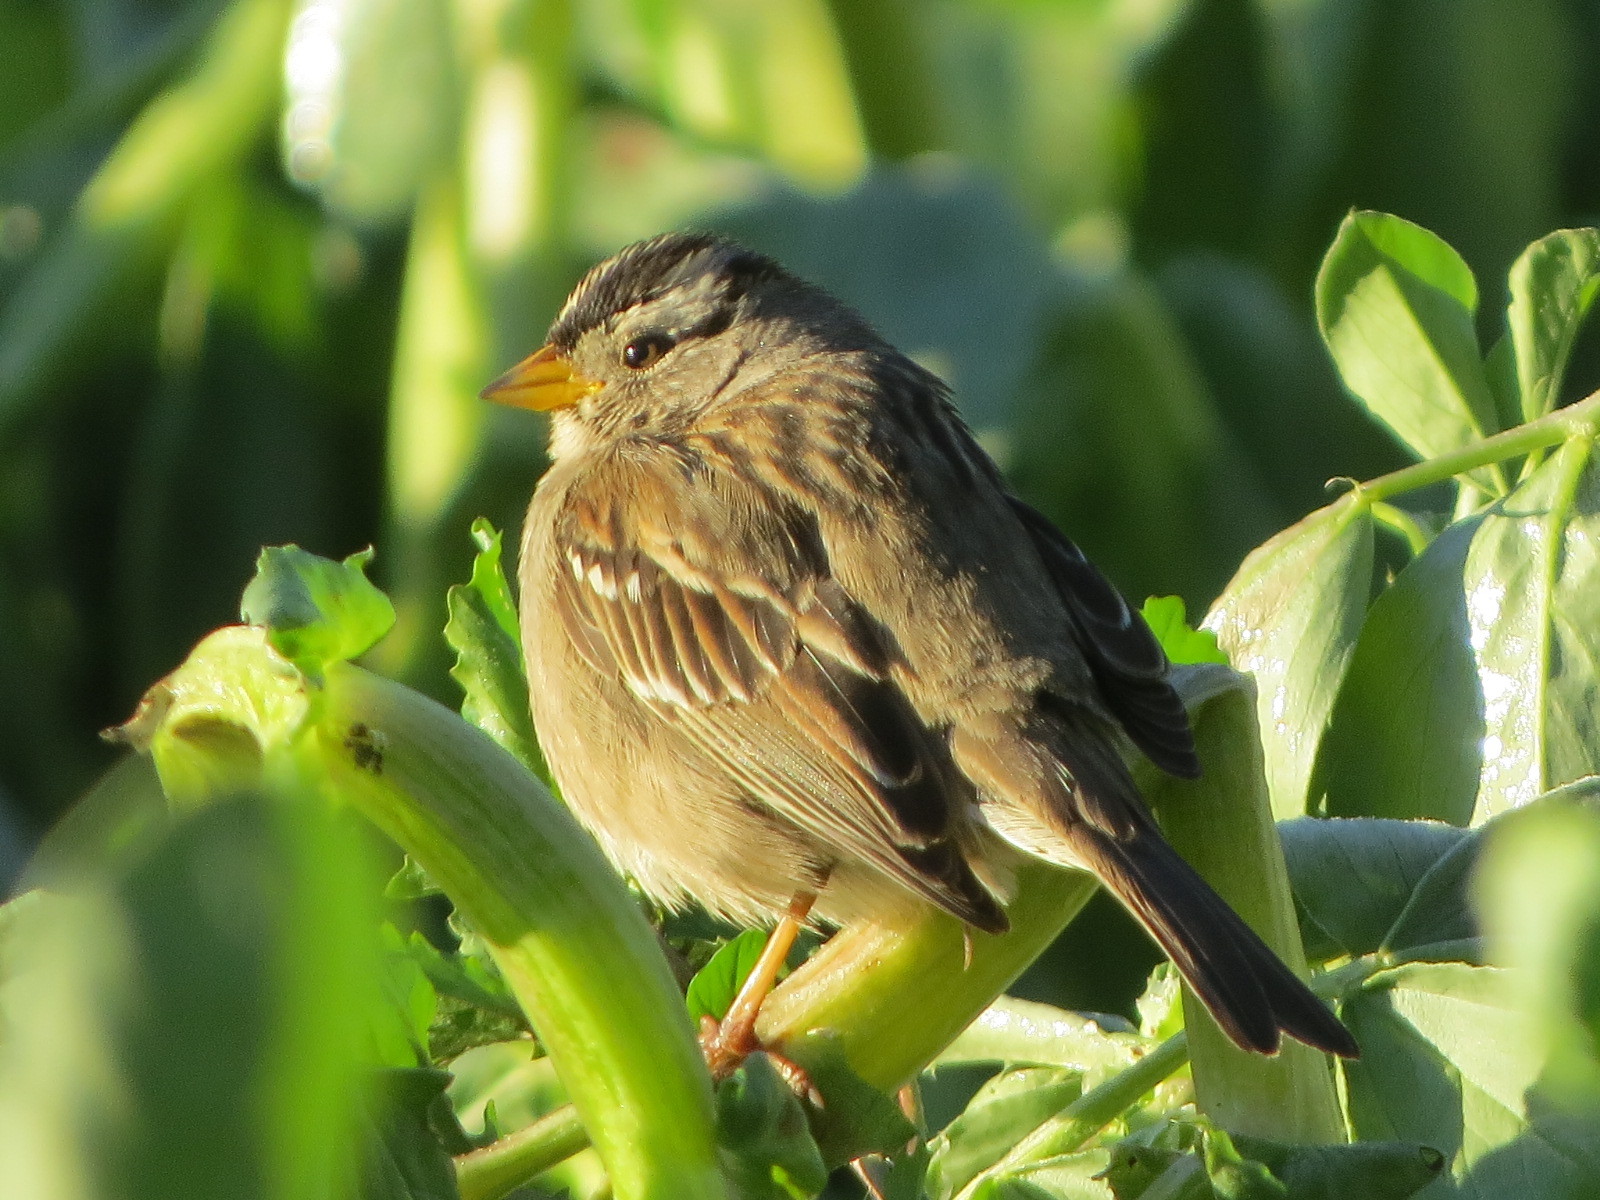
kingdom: Animalia
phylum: Chordata
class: Aves
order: Passeriformes
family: Passerellidae
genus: Zonotrichia
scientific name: Zonotrichia leucophrys
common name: White-crowned sparrow
